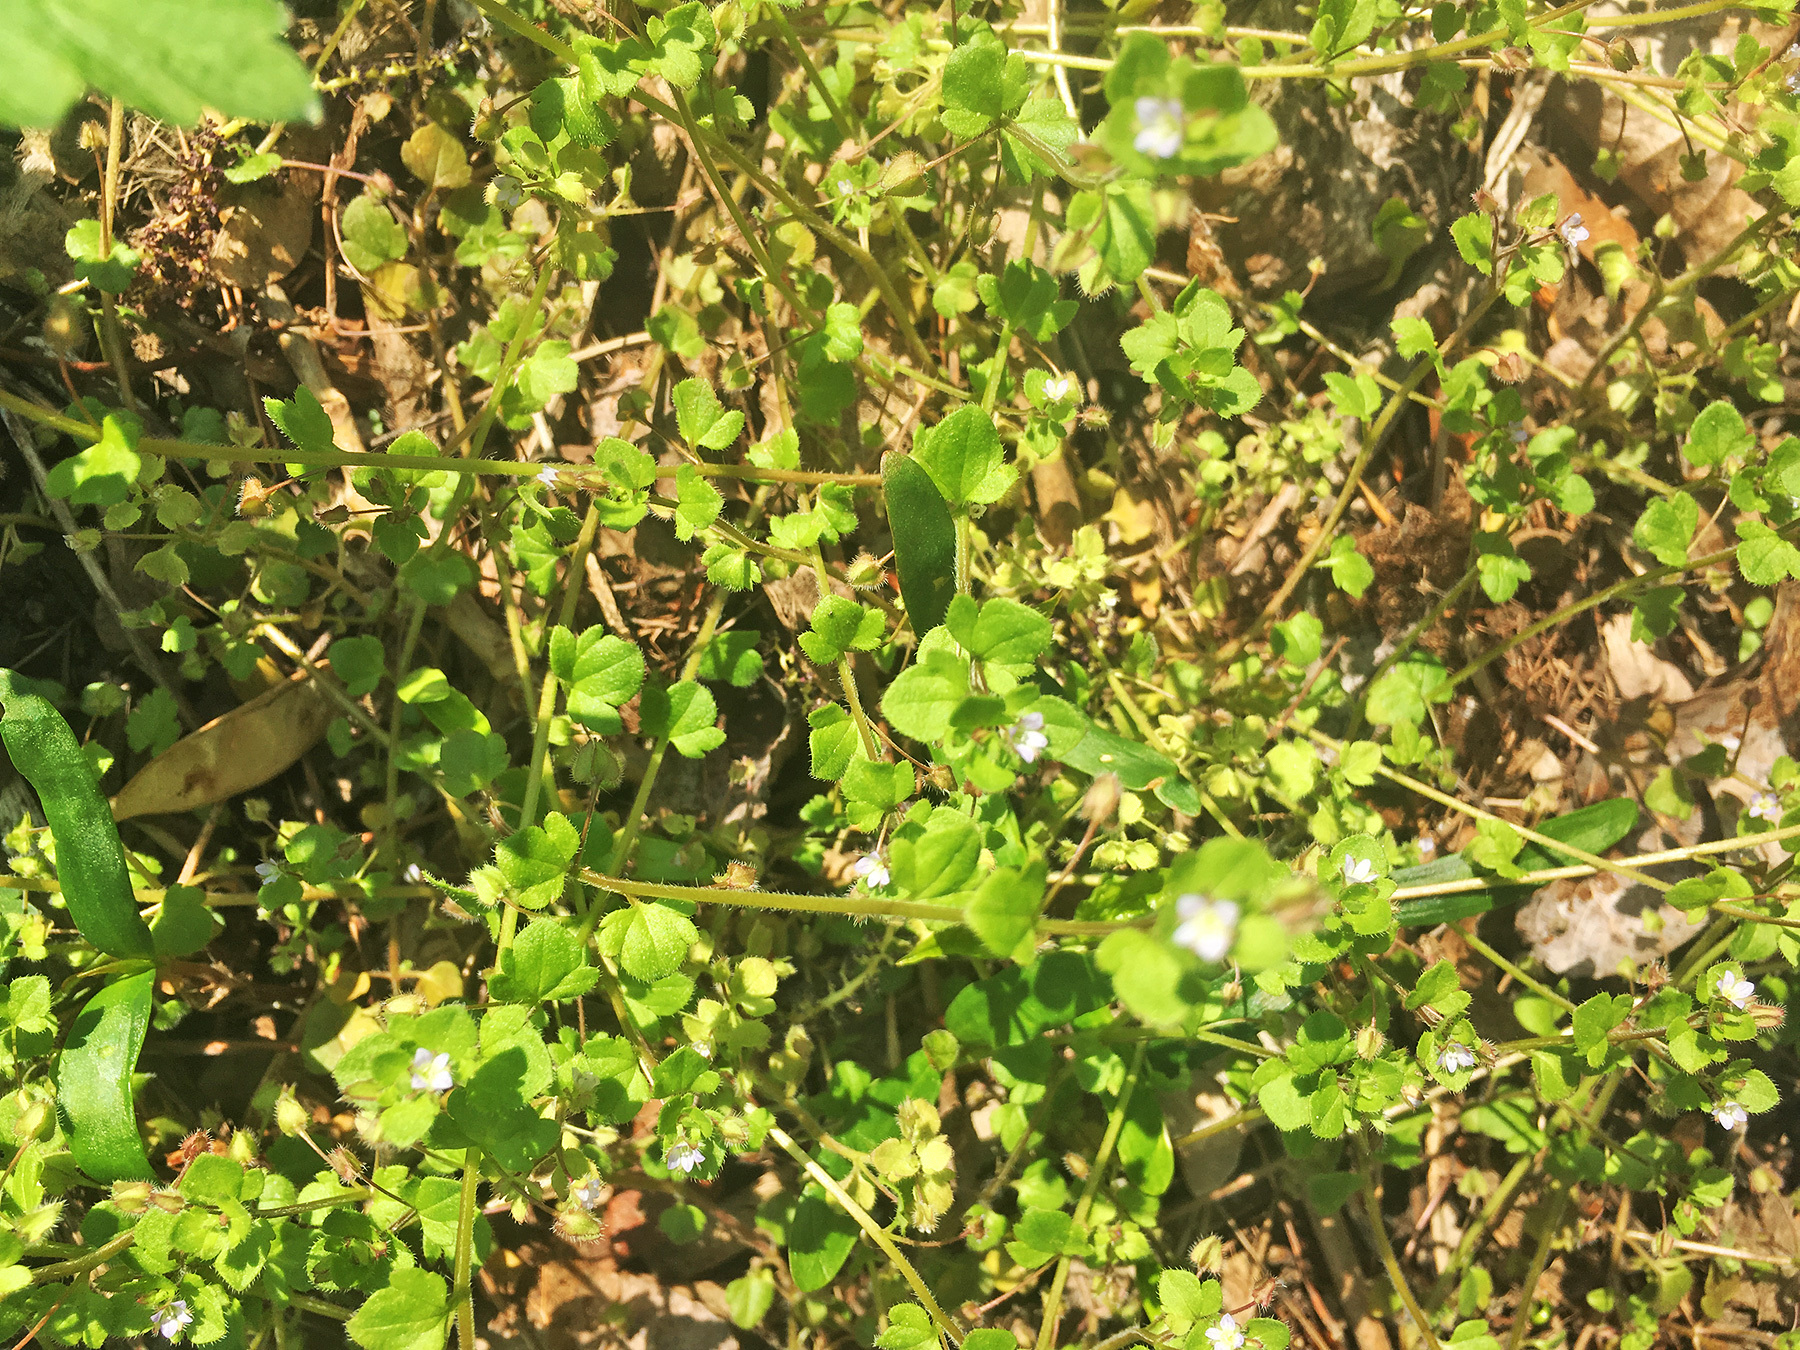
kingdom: Plantae
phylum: Tracheophyta
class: Magnoliopsida
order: Lamiales
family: Plantaginaceae
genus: Veronica
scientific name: Veronica hederifolia
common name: Ivy-leaved speedwell
